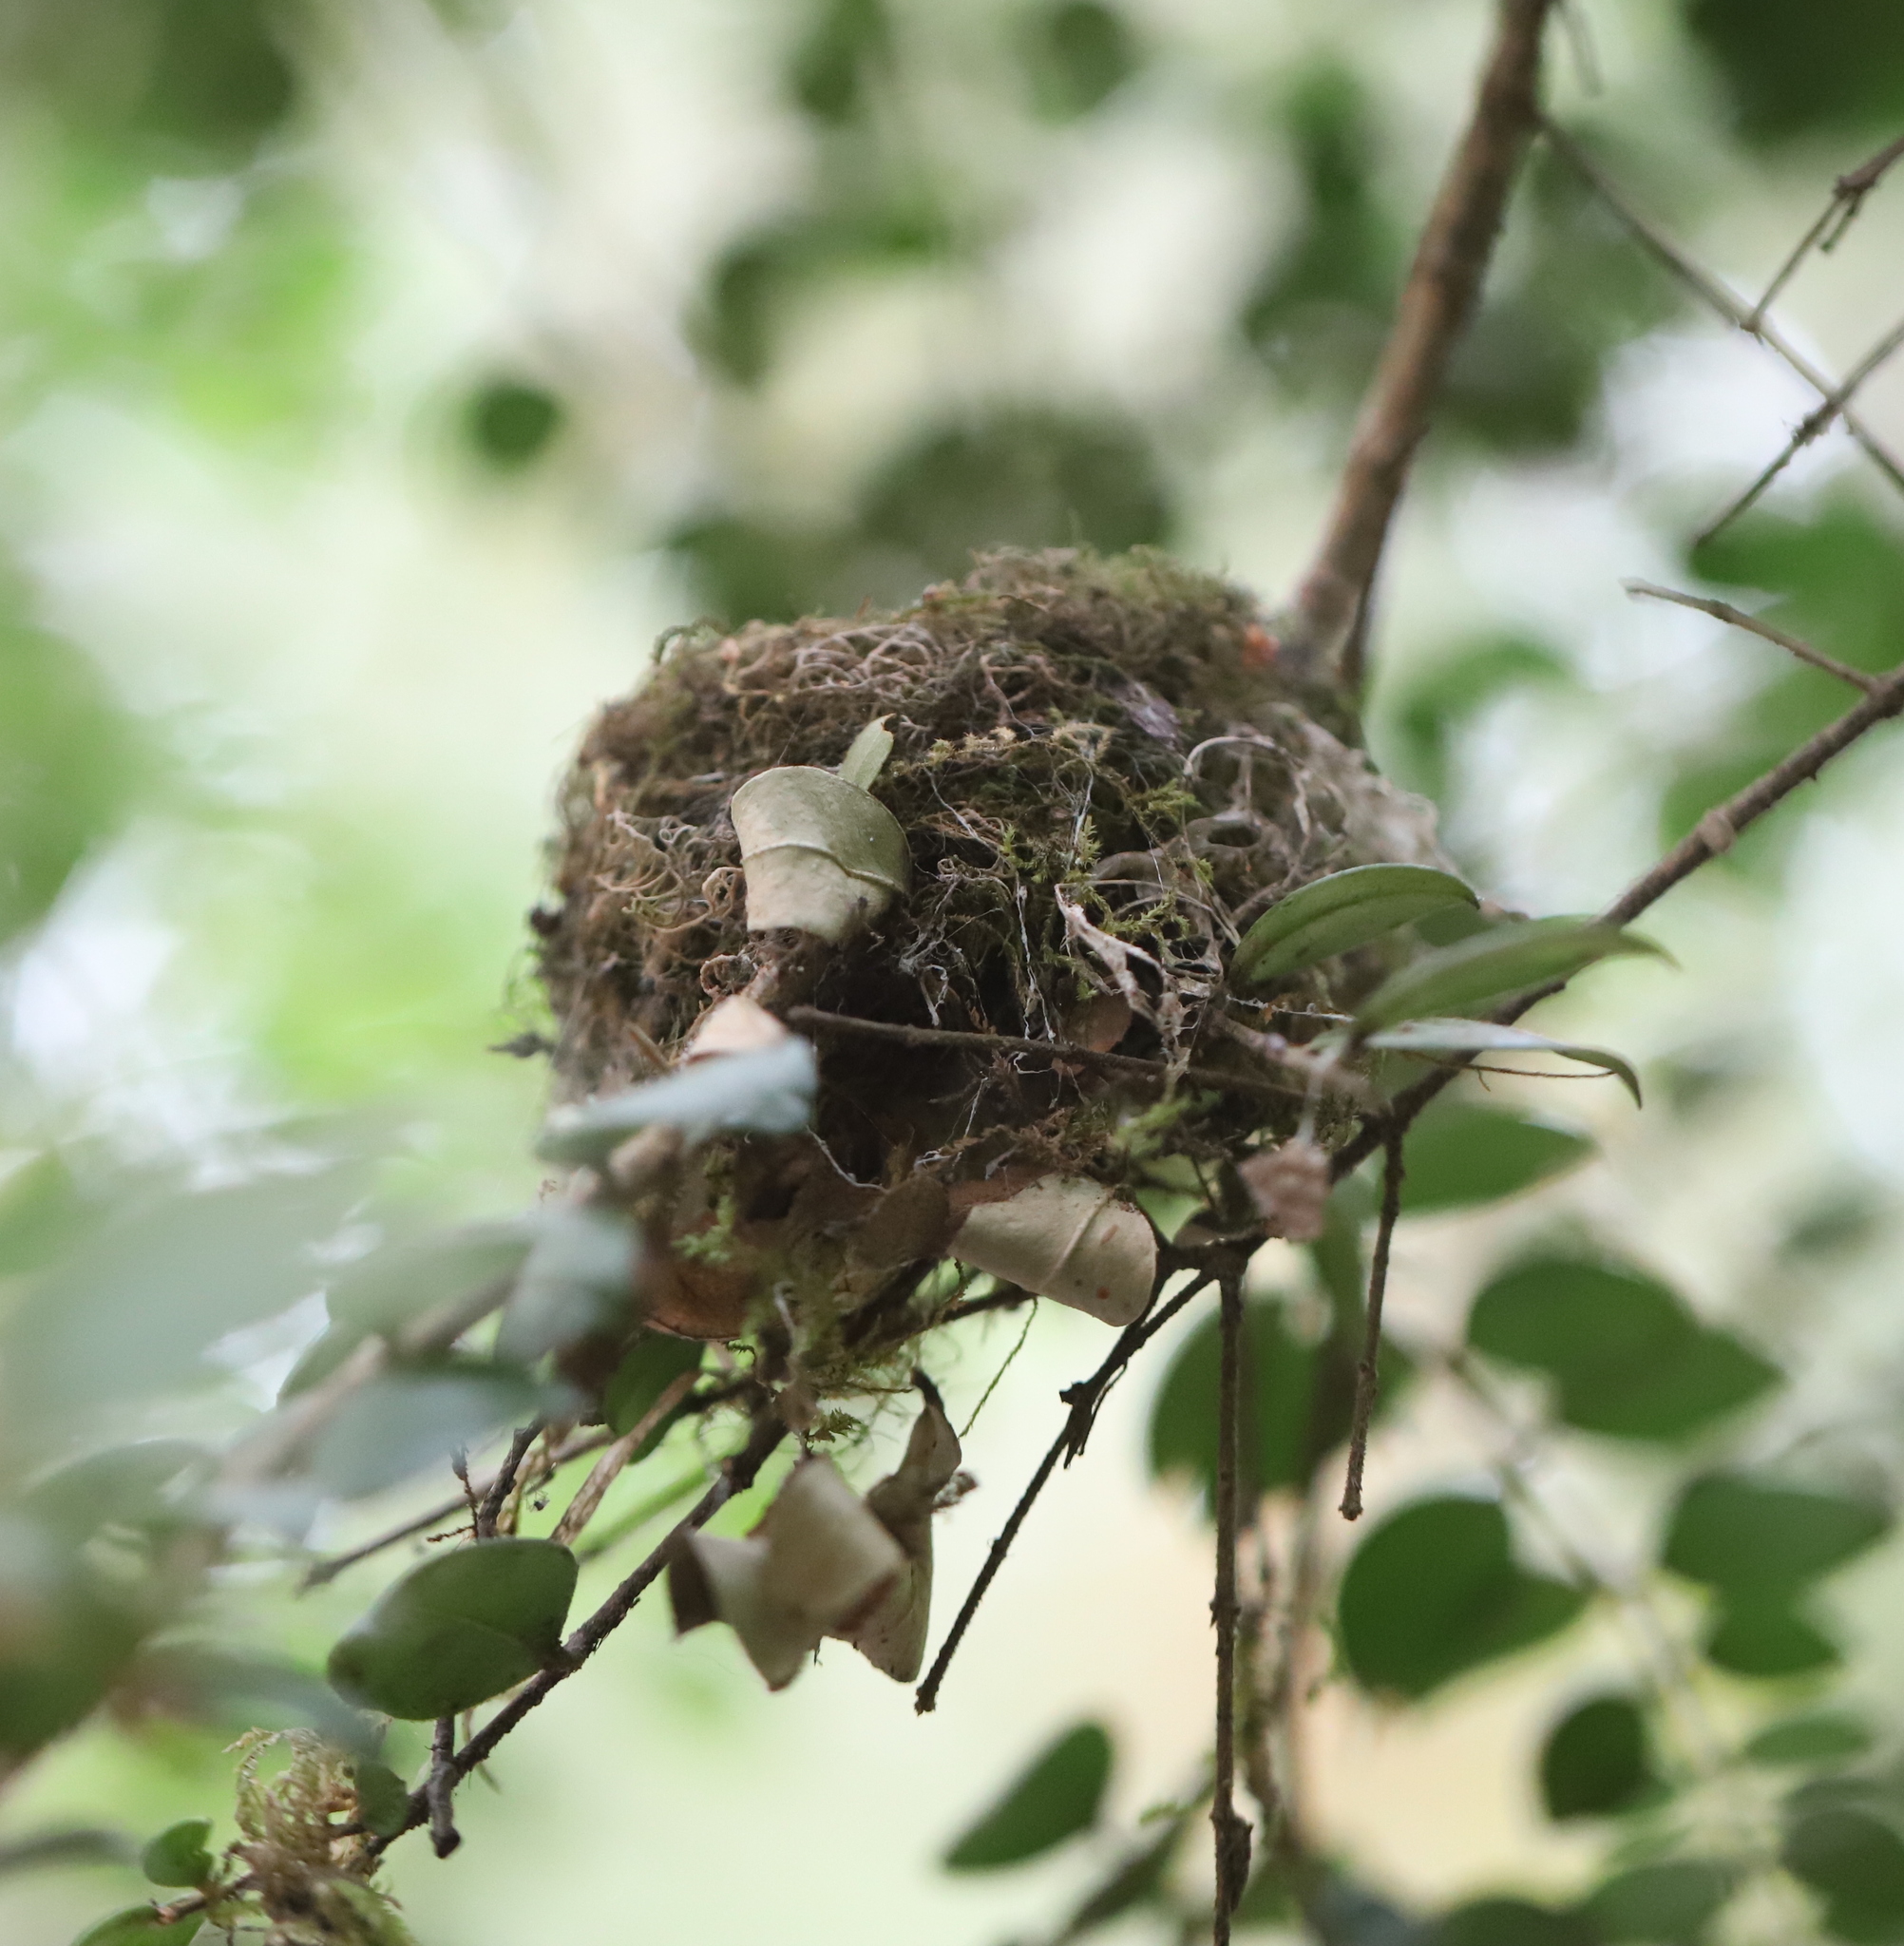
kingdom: Animalia
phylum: Chordata
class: Aves
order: Apodiformes
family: Trochilidae
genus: Sephanoides
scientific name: Sephanoides sephaniodes
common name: Green-backed firecrown
